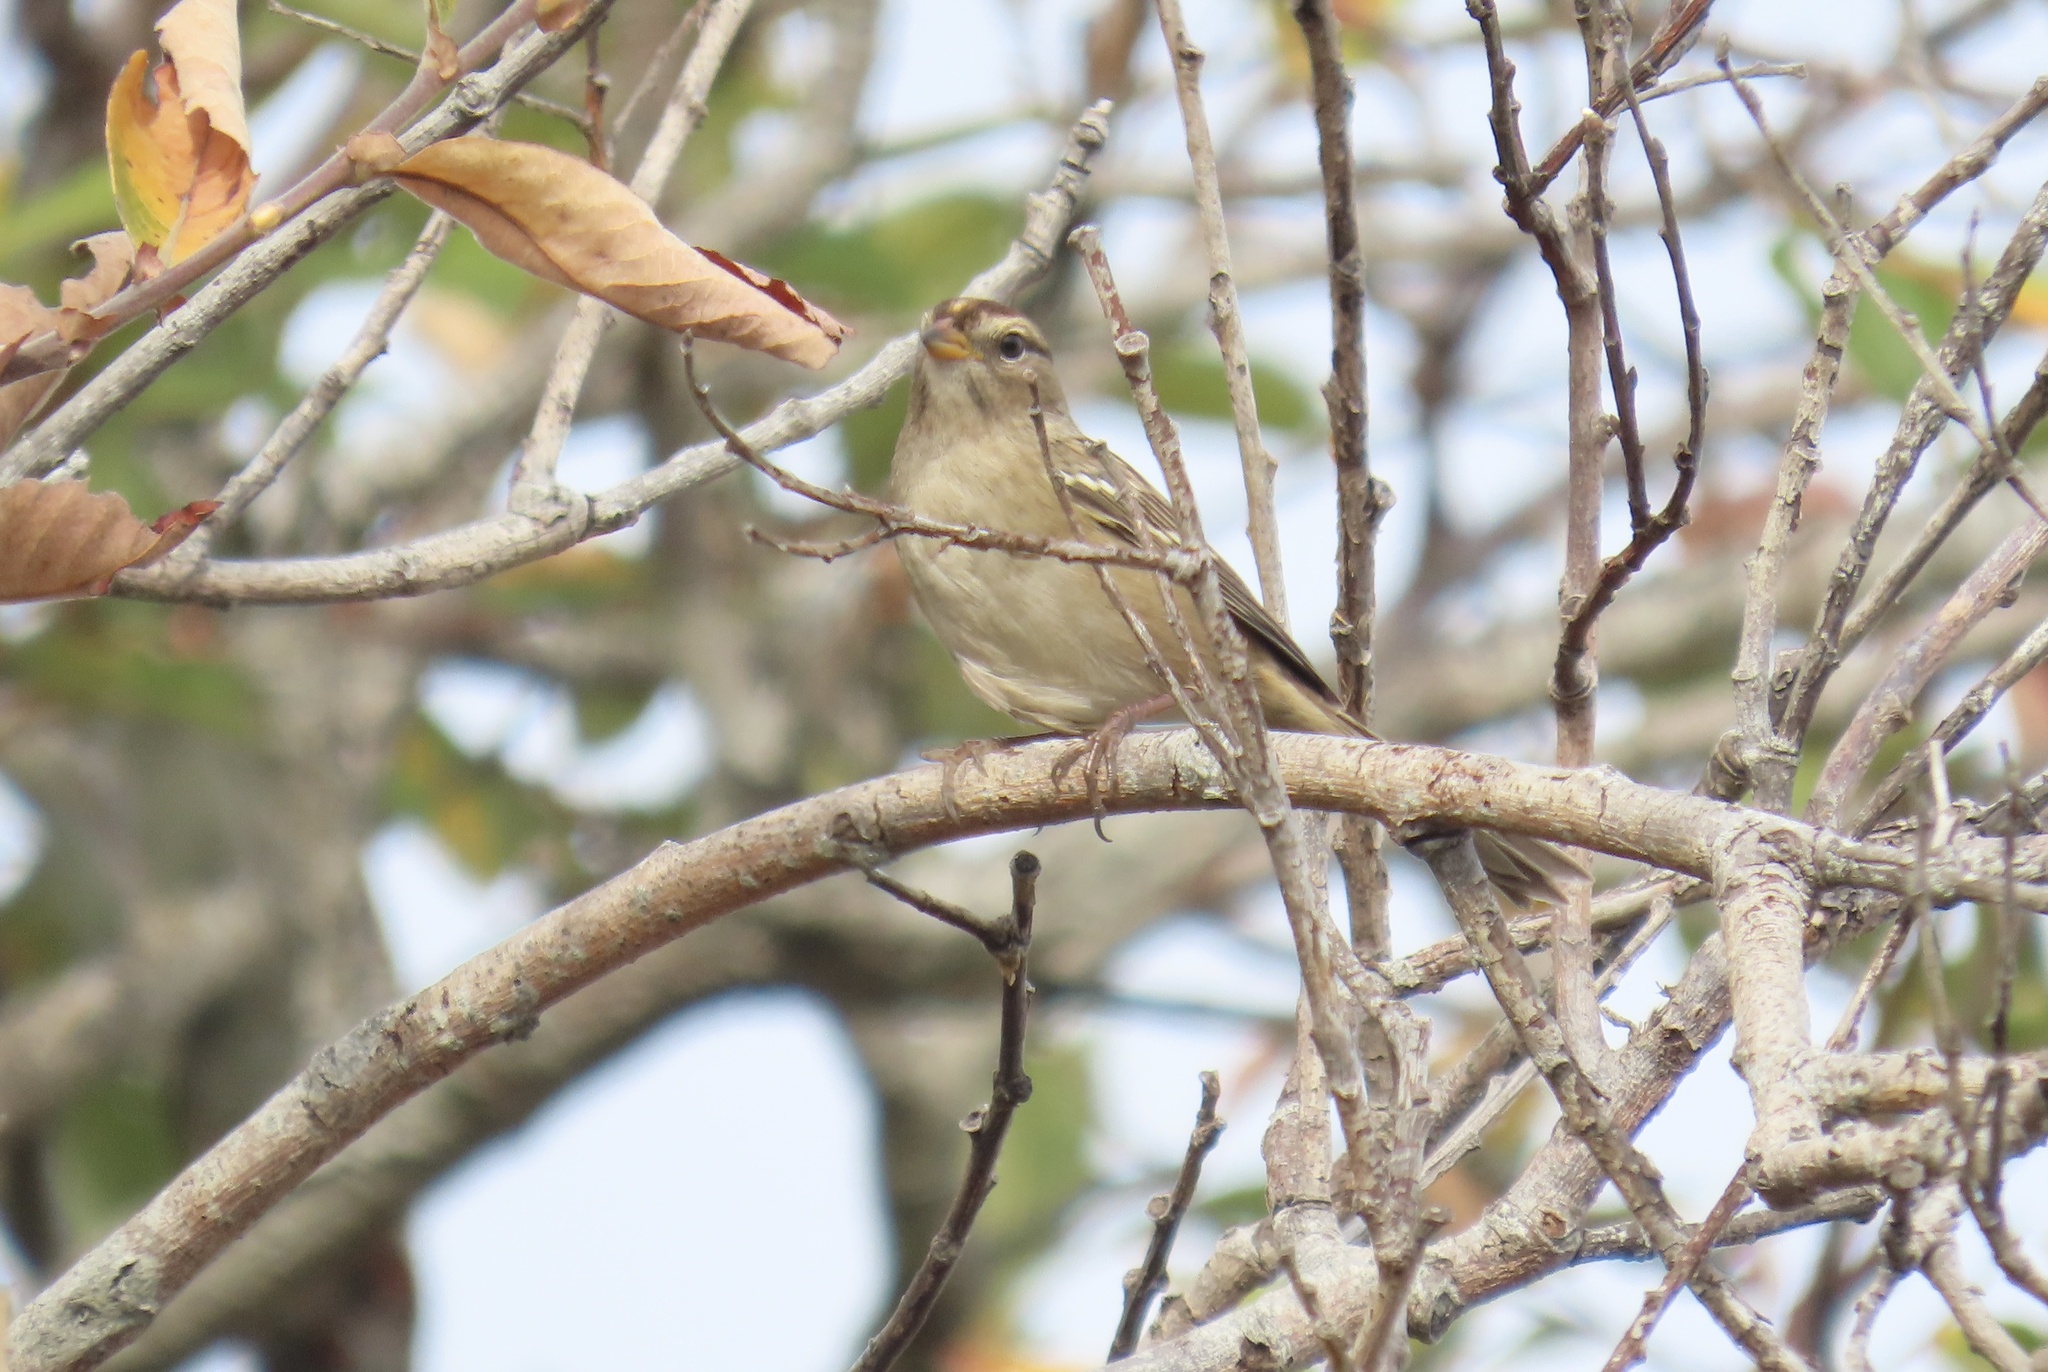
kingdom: Animalia
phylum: Chordata
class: Aves
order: Passeriformes
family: Passerellidae
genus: Zonotrichia
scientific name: Zonotrichia leucophrys
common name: White-crowned sparrow
